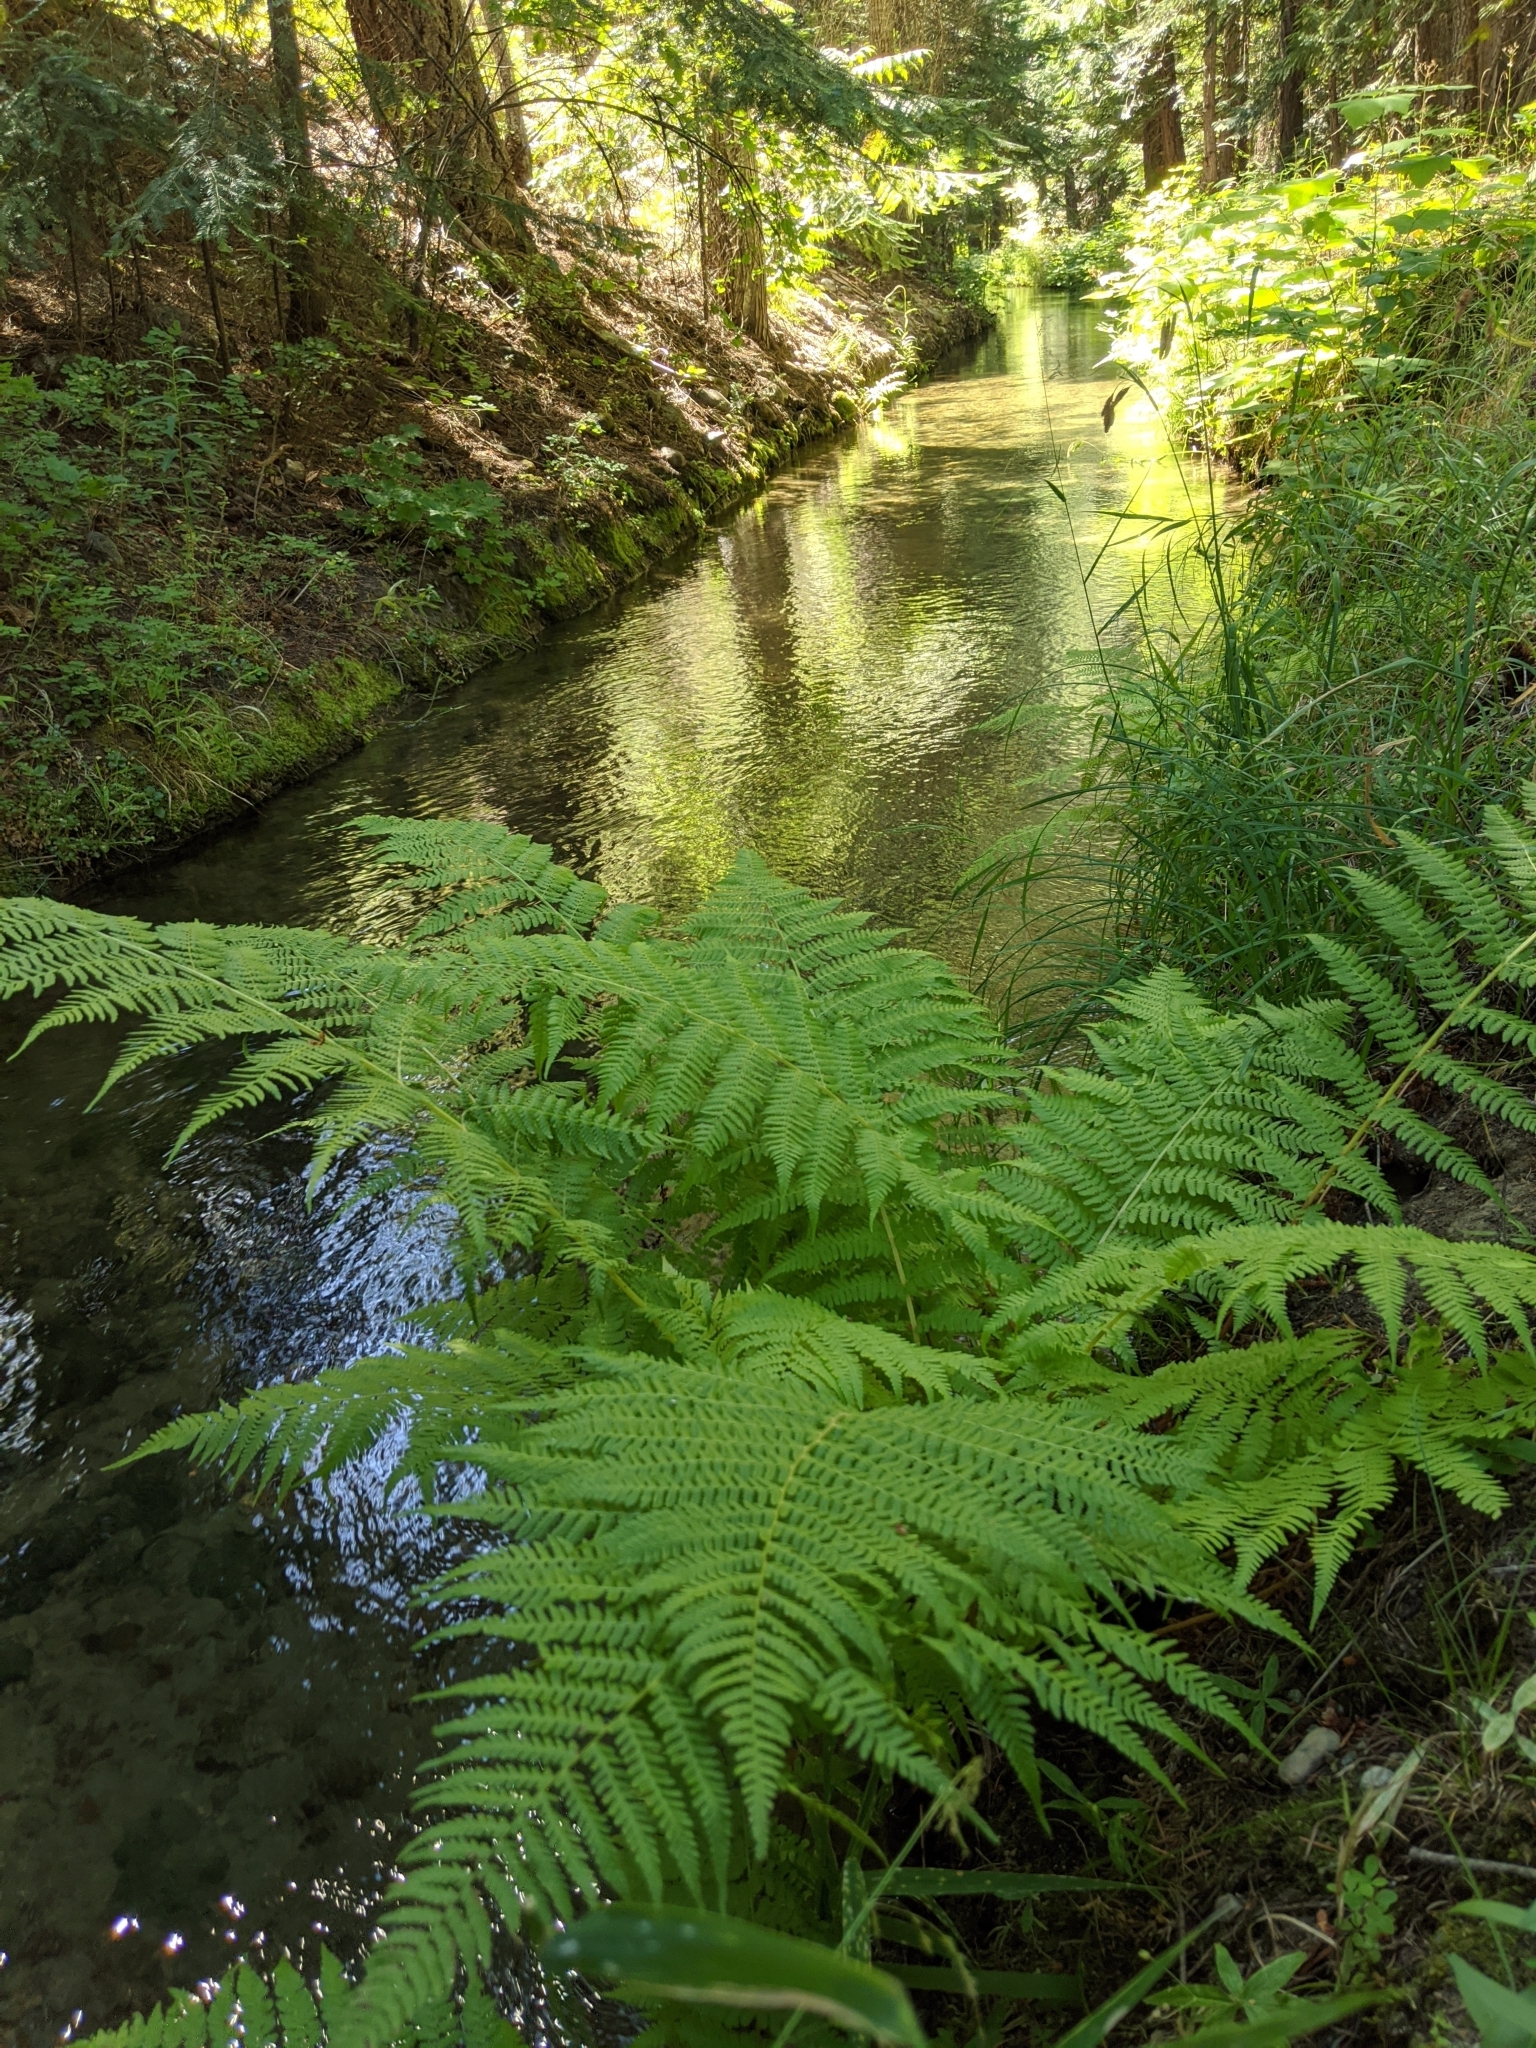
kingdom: Plantae
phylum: Tracheophyta
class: Polypodiopsida
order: Polypodiales
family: Athyriaceae
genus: Athyrium
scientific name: Athyrium filix-femina
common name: Lady fern
